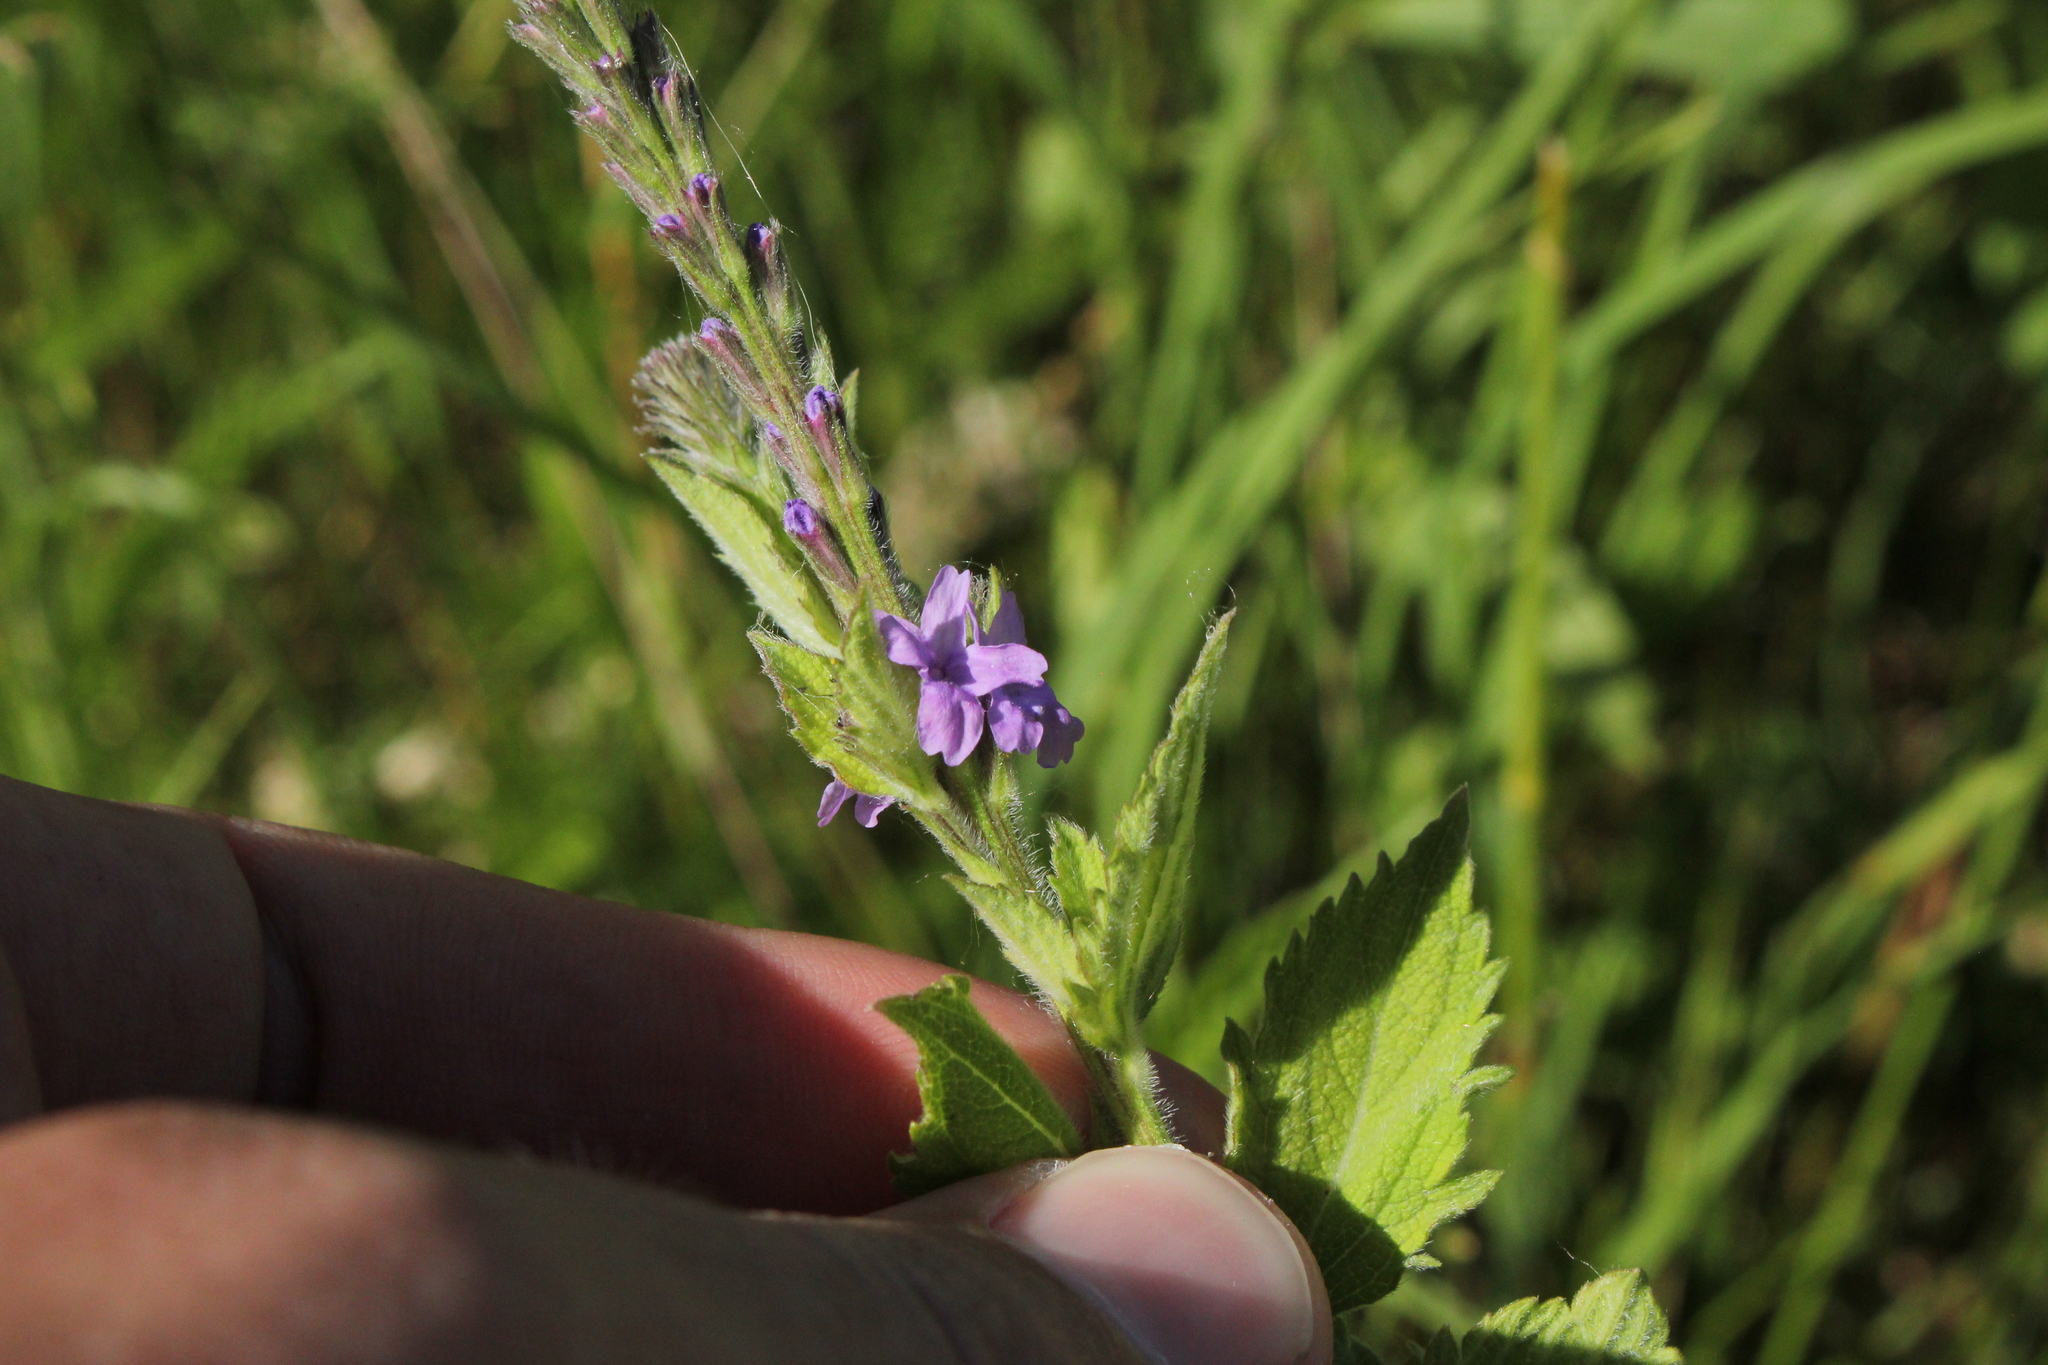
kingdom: Plantae
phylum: Tracheophyta
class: Magnoliopsida
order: Lamiales
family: Verbenaceae
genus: Verbena
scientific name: Verbena stricta
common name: Hoary vervain
